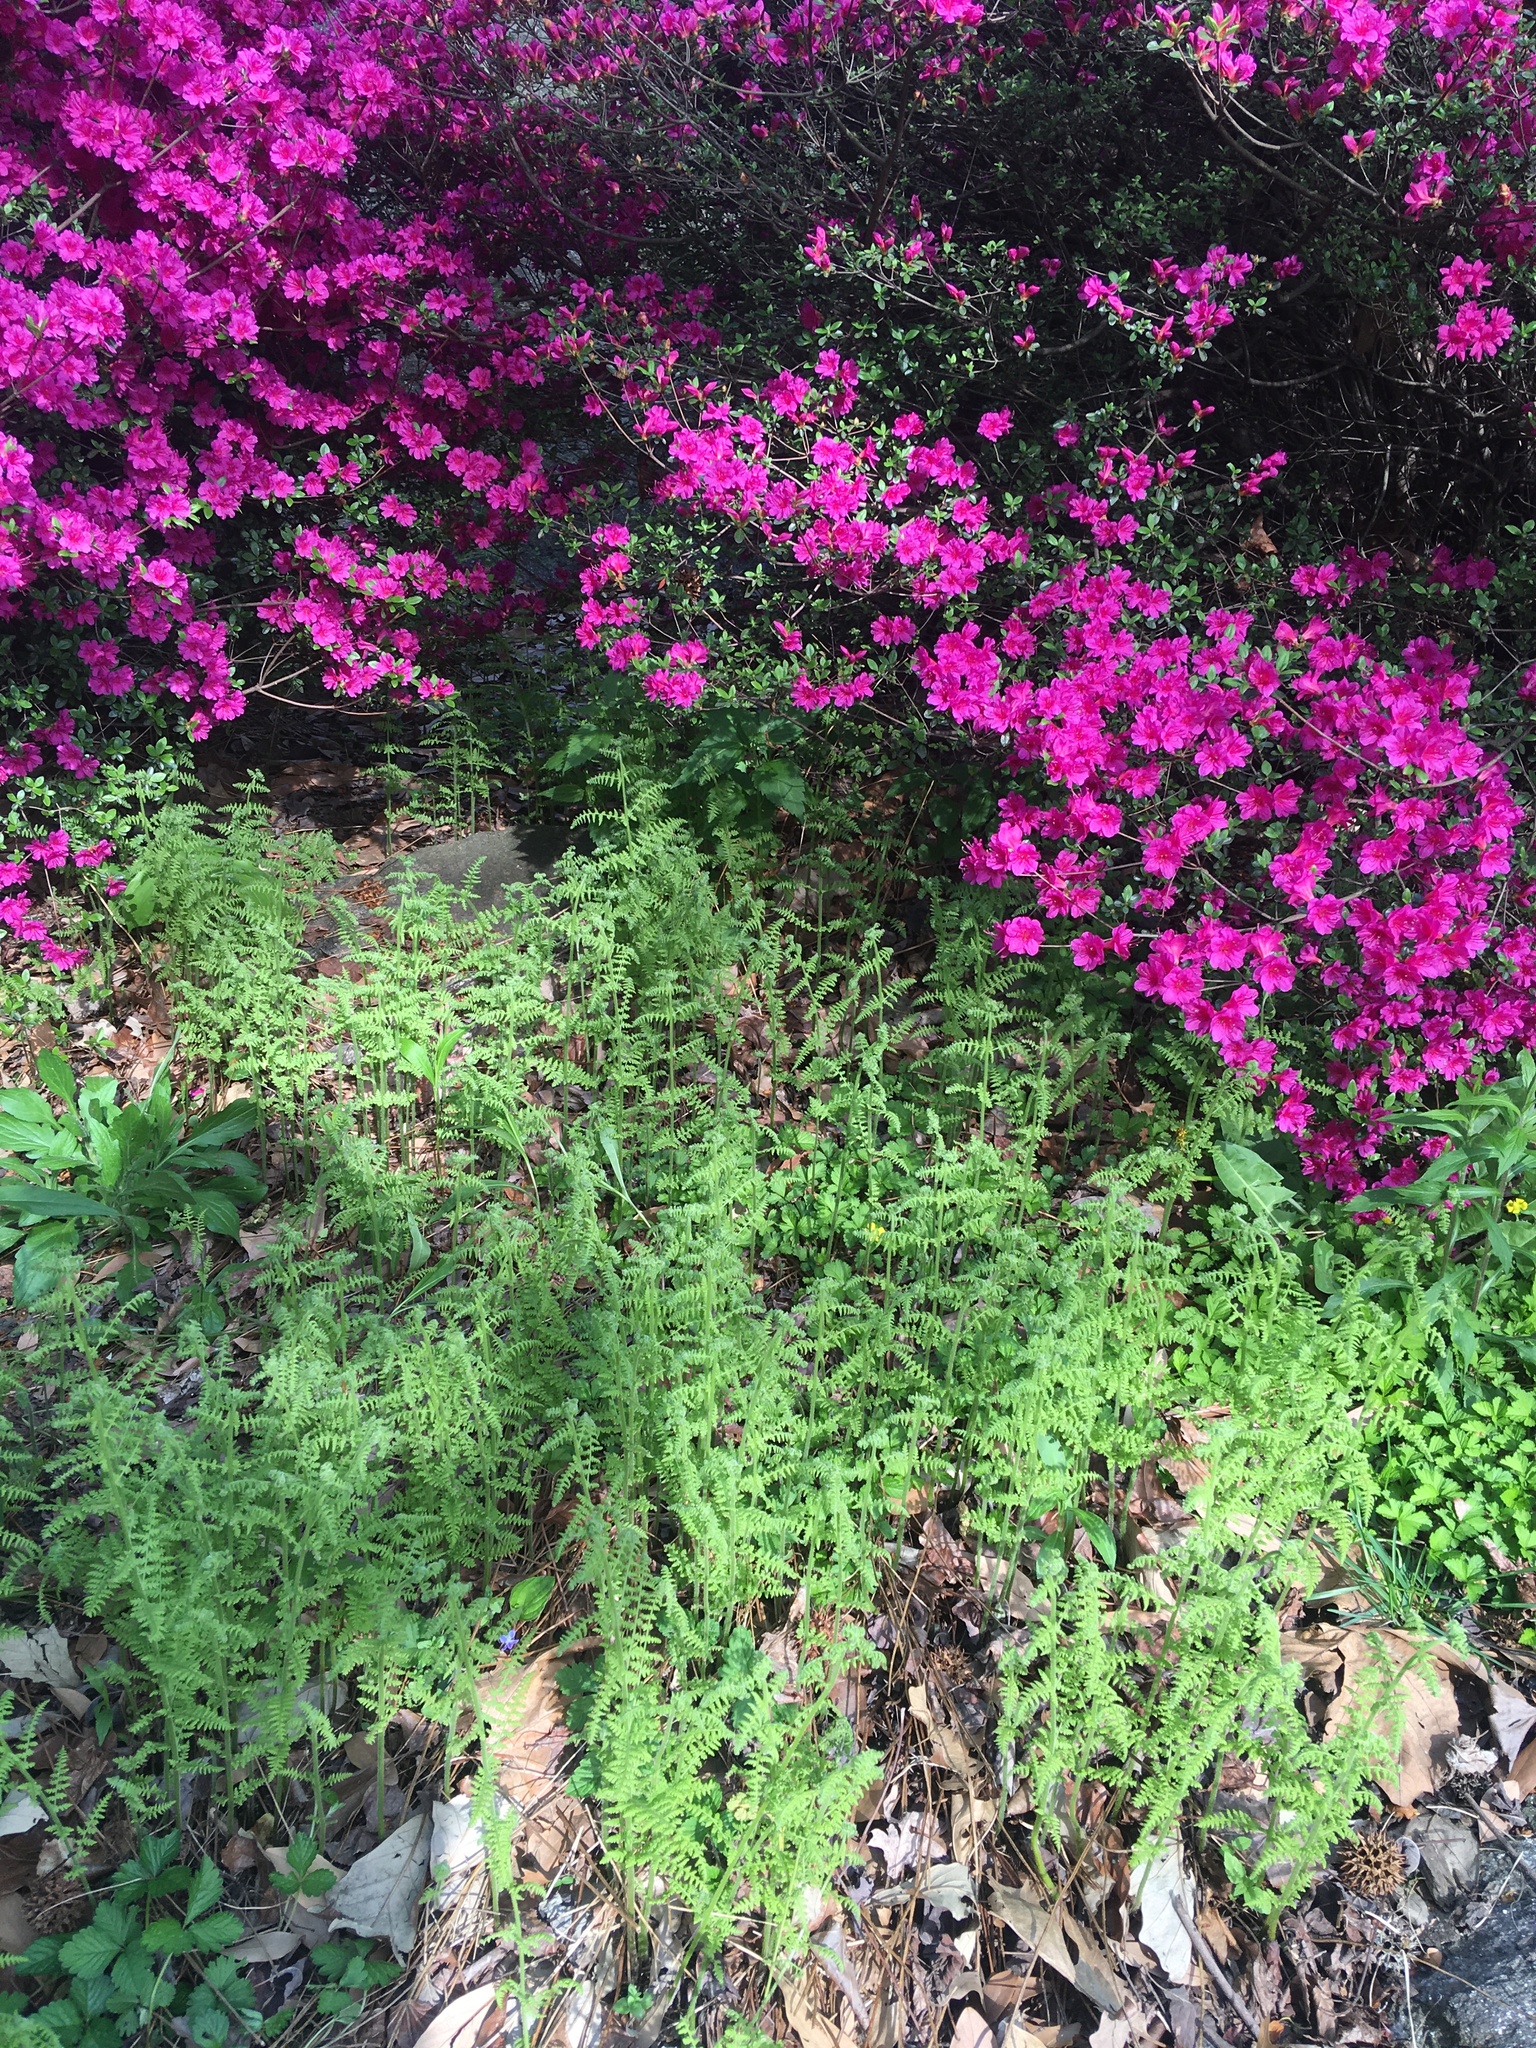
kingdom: Plantae
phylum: Tracheophyta
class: Polypodiopsida
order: Polypodiales
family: Dennstaedtiaceae
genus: Sitobolium
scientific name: Sitobolium punctilobum
